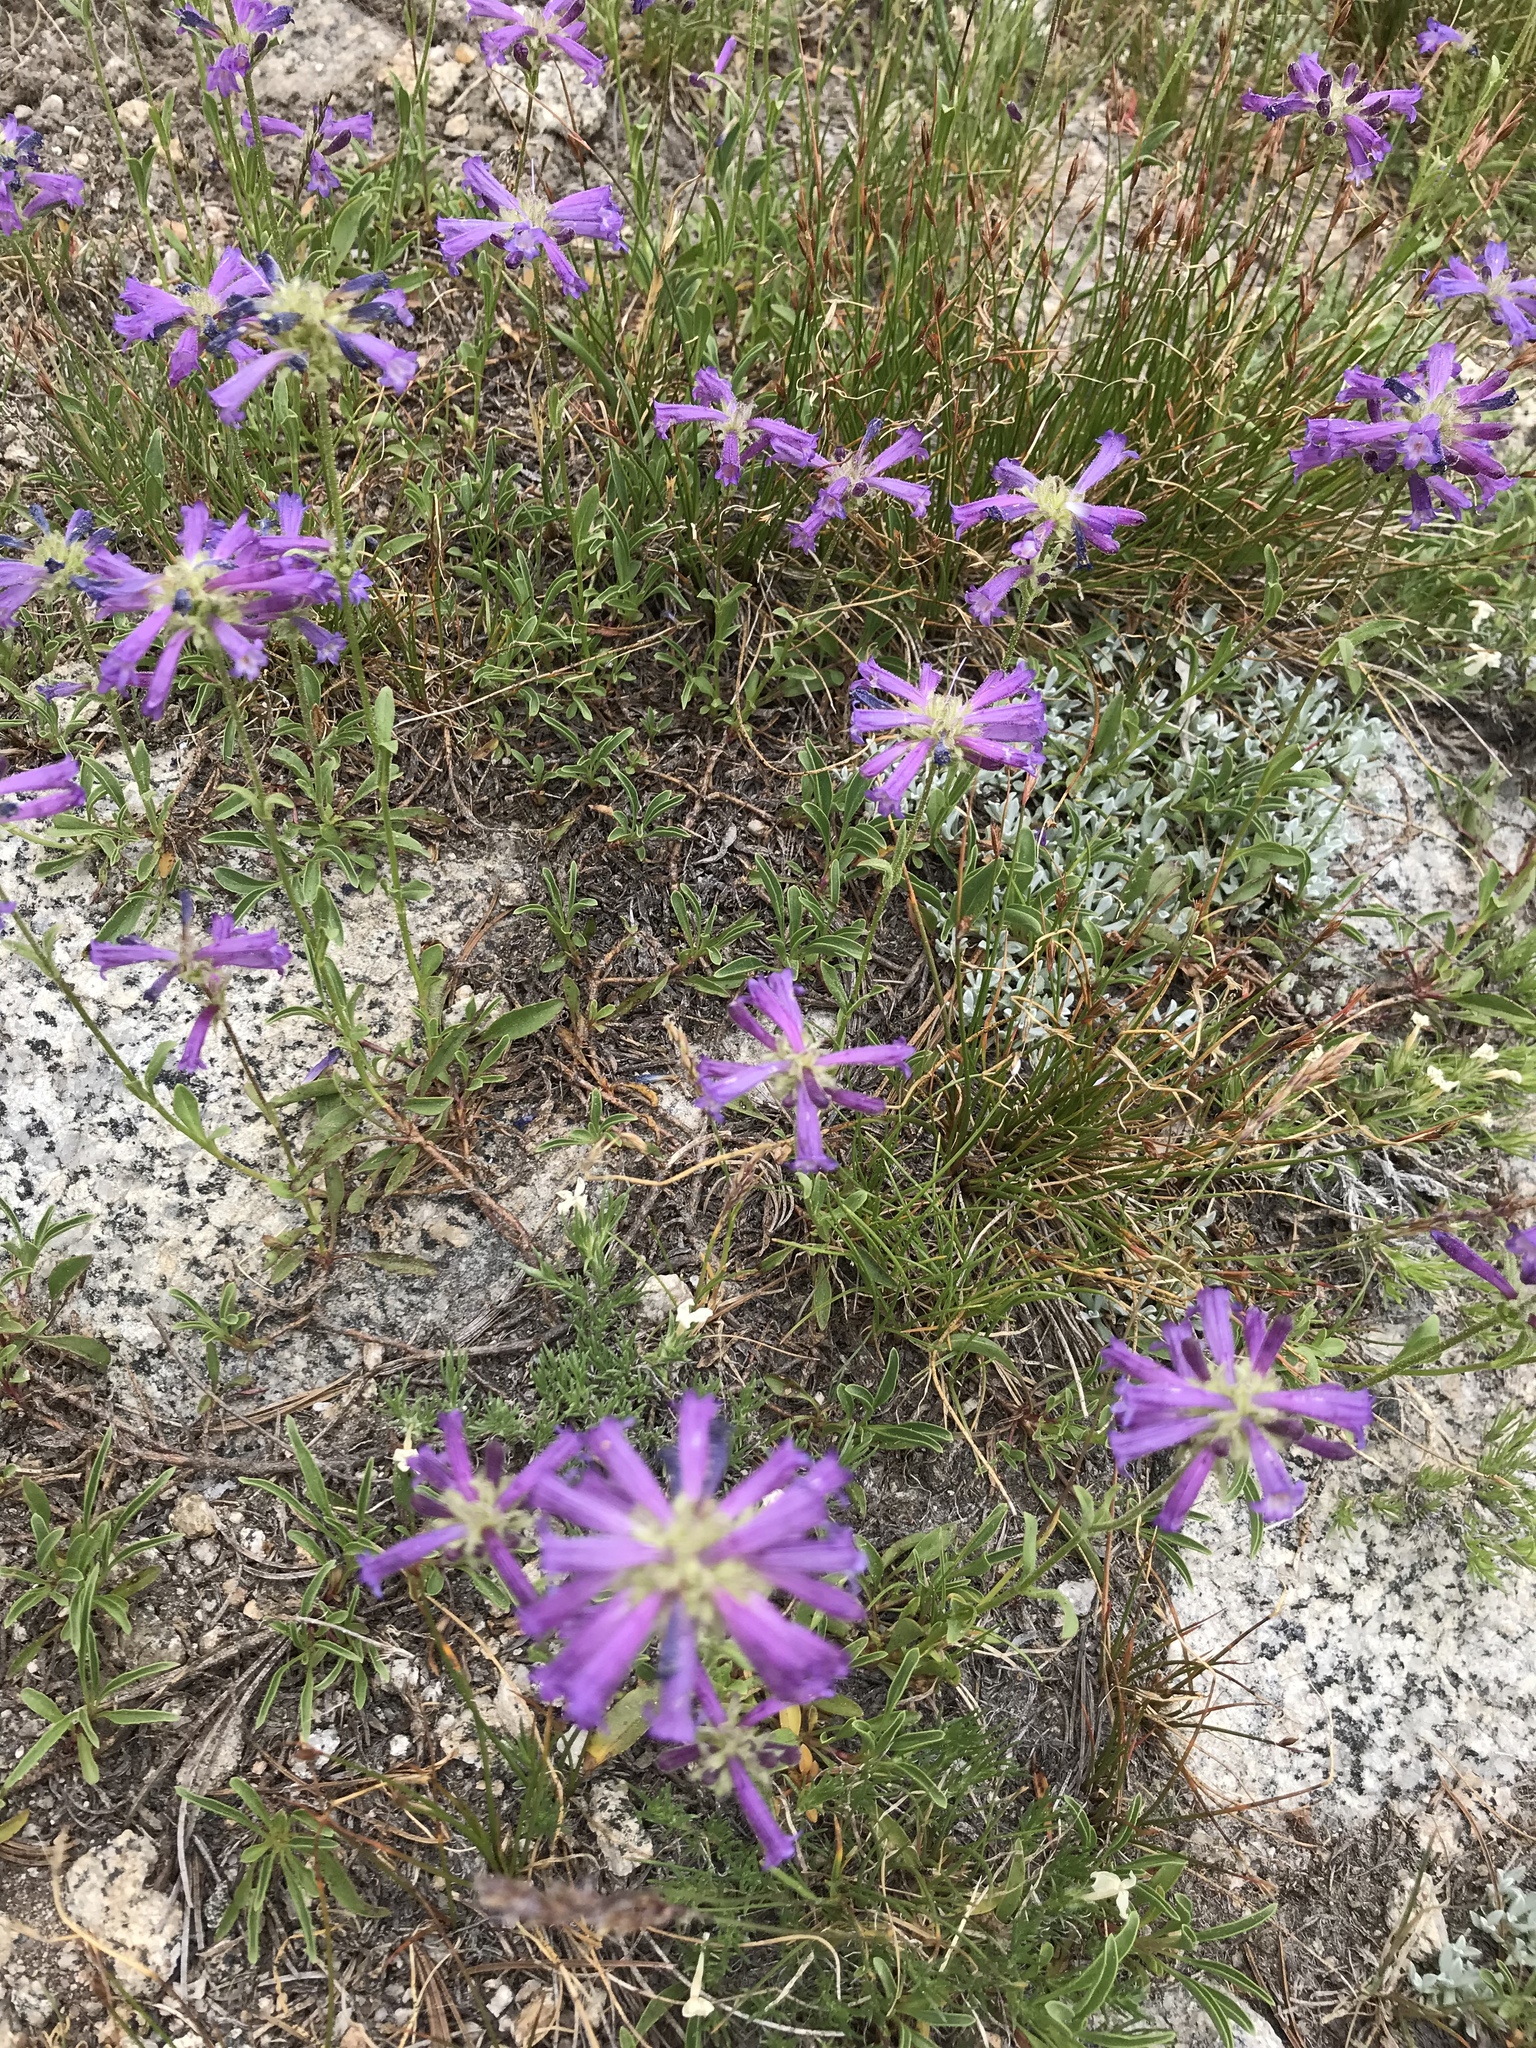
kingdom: Plantae
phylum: Tracheophyta
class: Magnoliopsida
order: Lamiales
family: Plantaginaceae
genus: Penstemon
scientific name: Penstemon heterodoxus
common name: Sierran penstemon
